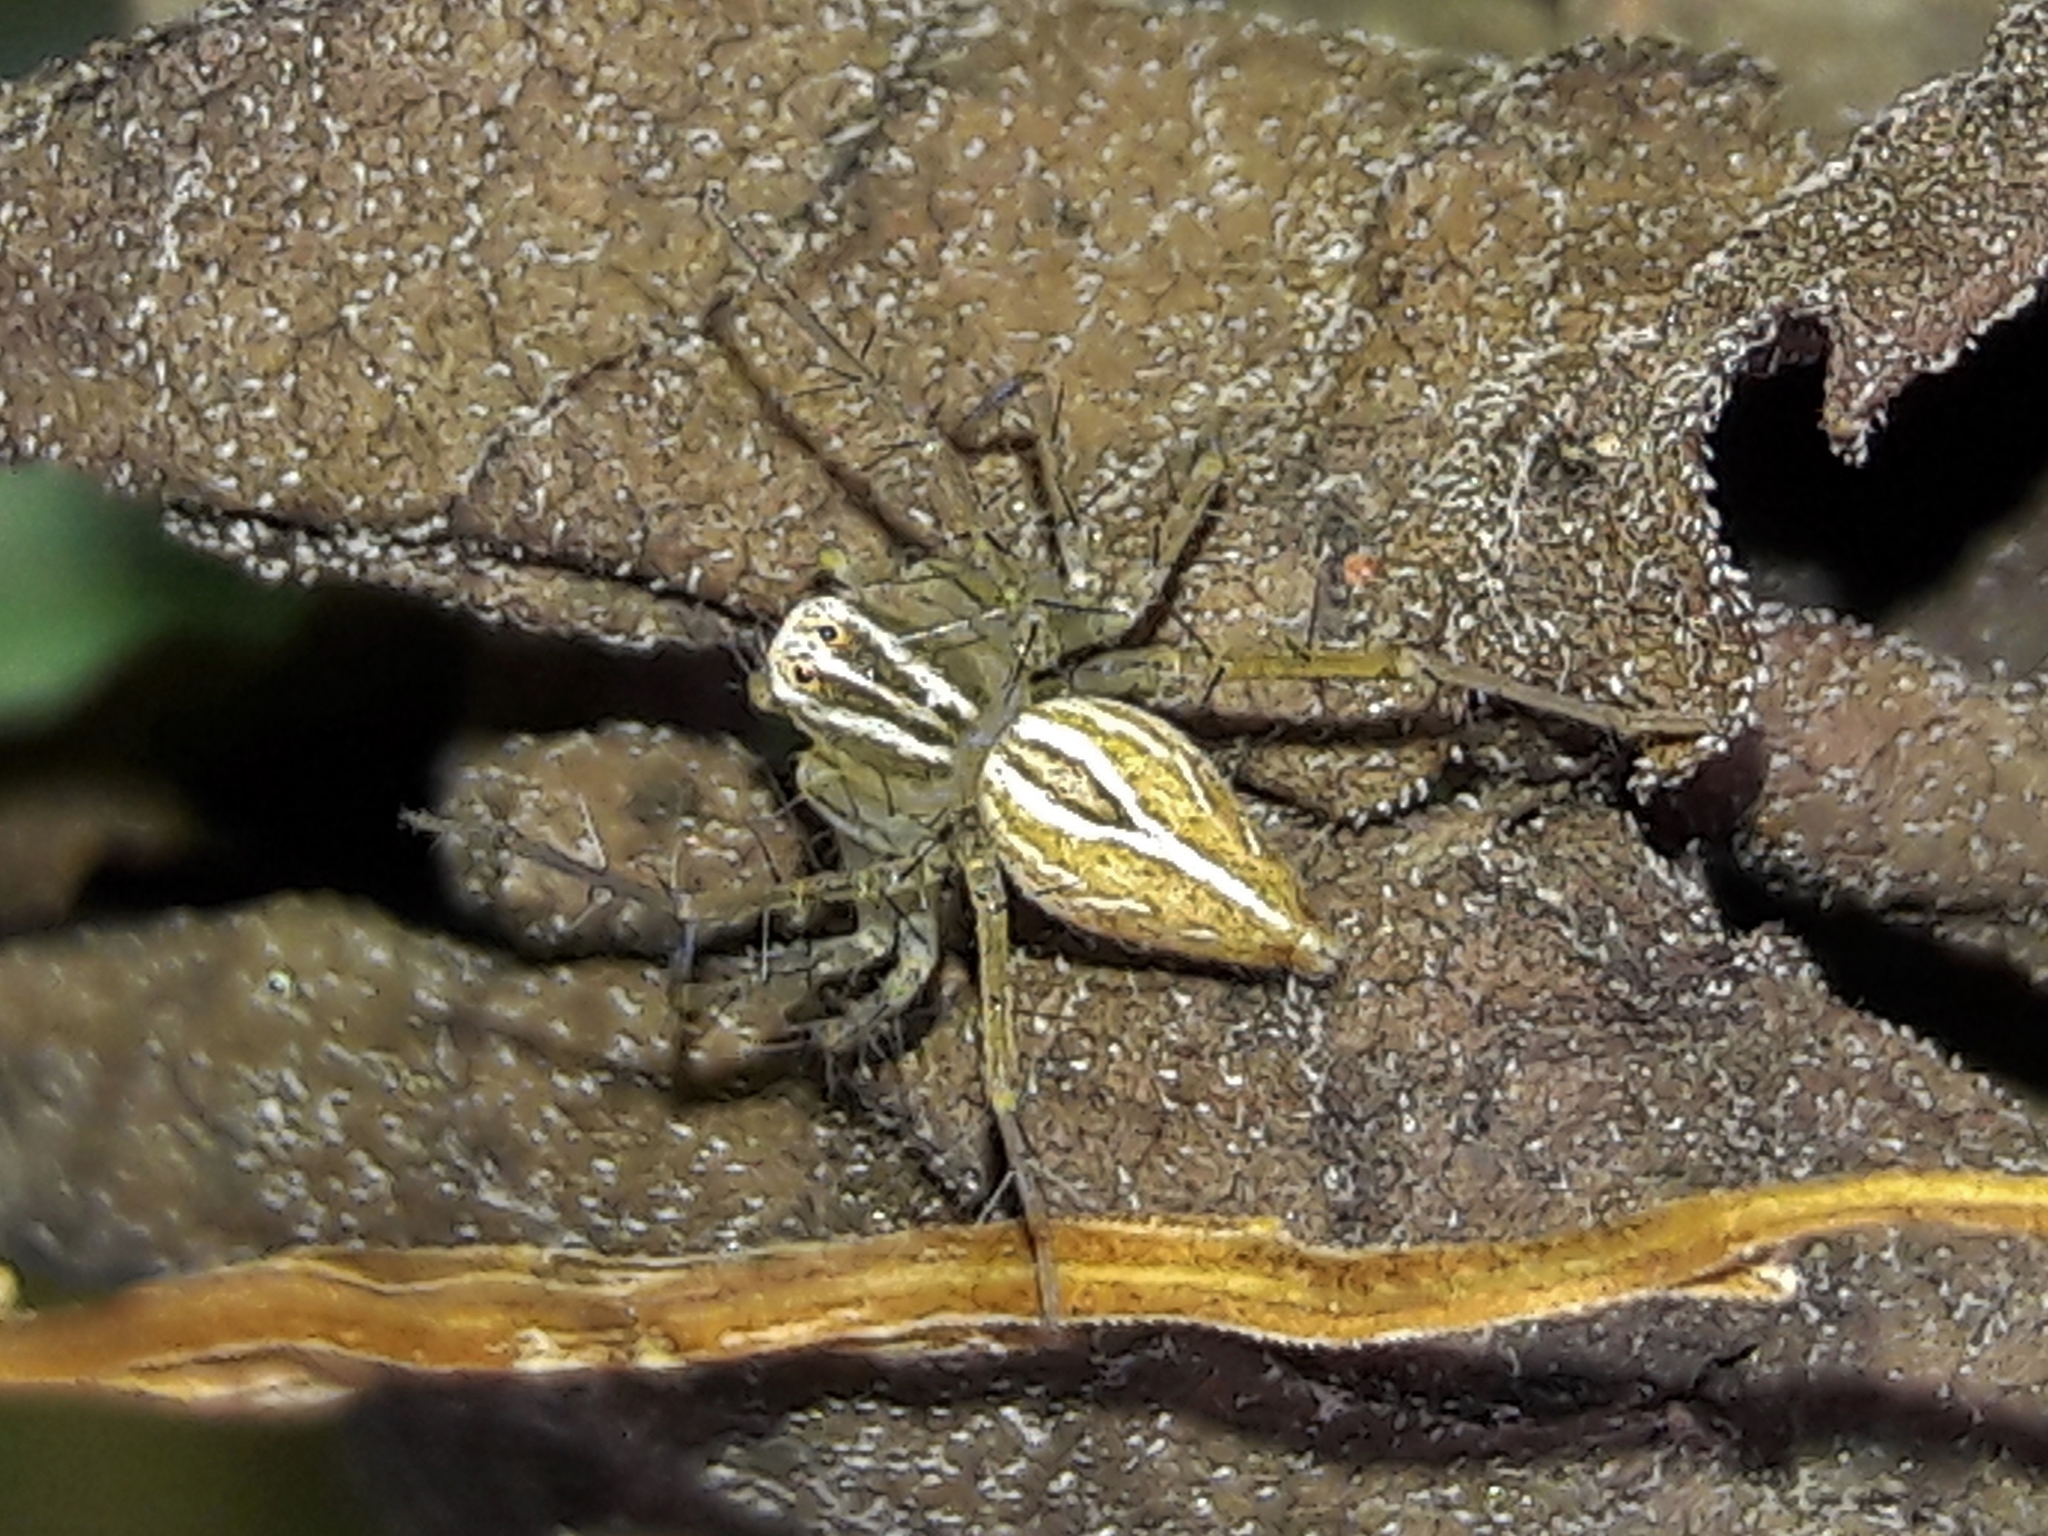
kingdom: Animalia
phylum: Arthropoda
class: Arachnida
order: Araneae
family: Oxyopidae
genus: Oxyopes
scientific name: Oxyopes salticus
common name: Lynx spiders
